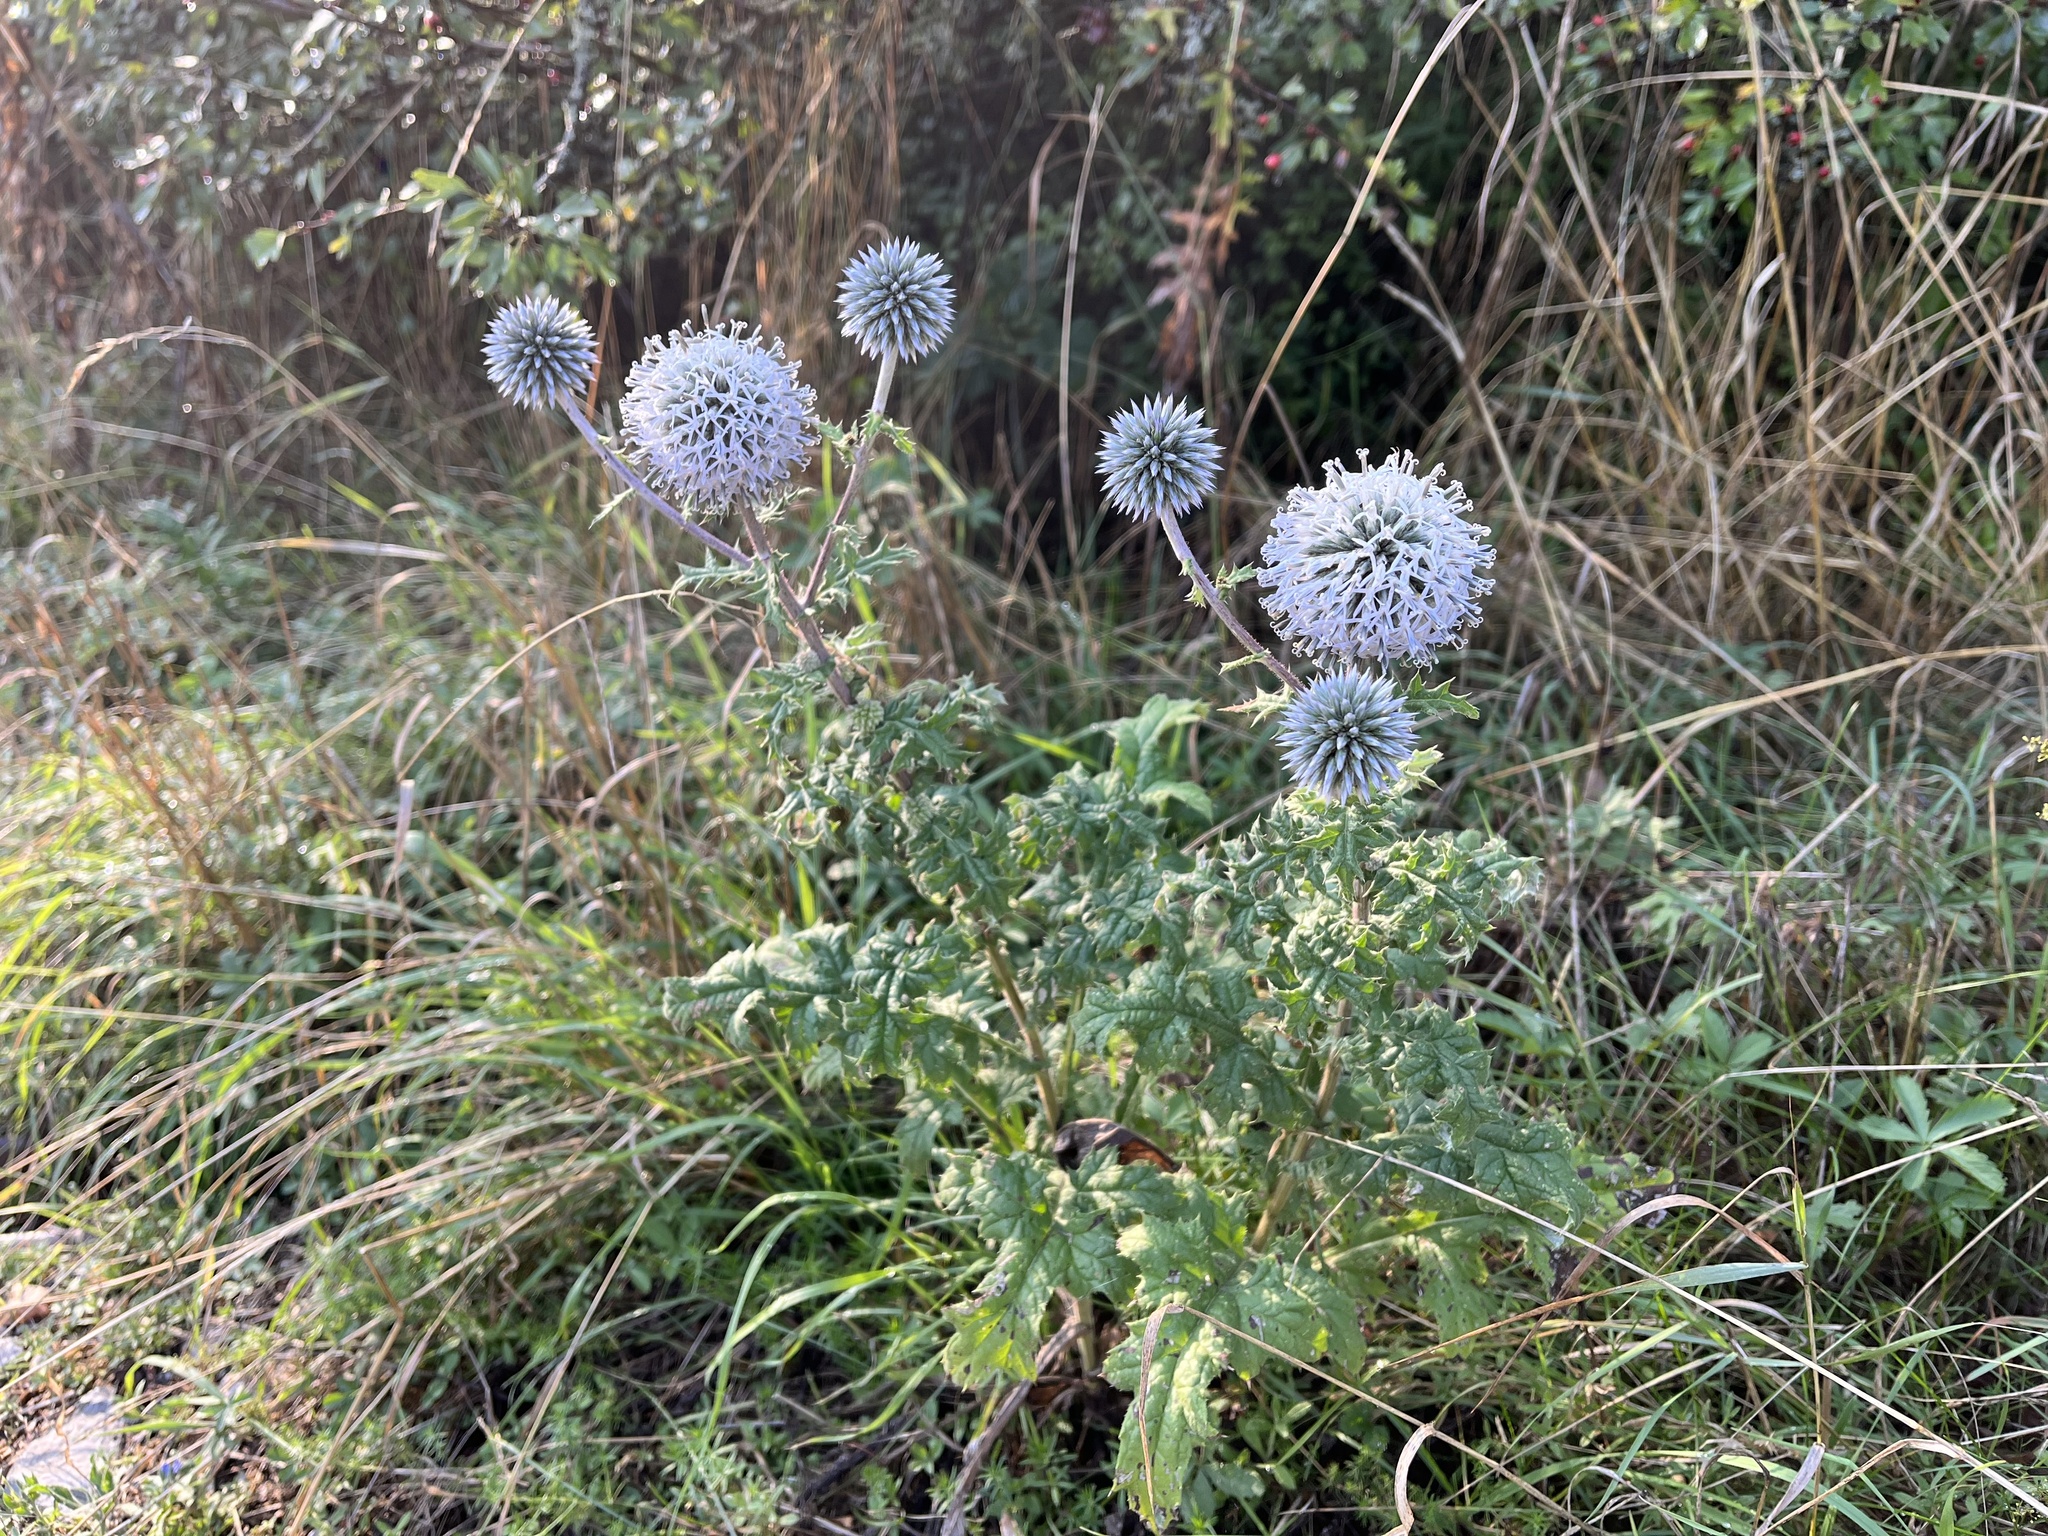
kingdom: Plantae
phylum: Tracheophyta
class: Magnoliopsida
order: Asterales
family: Asteraceae
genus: Echinops
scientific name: Echinops sphaerocephalus
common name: Glandular globe-thistle
